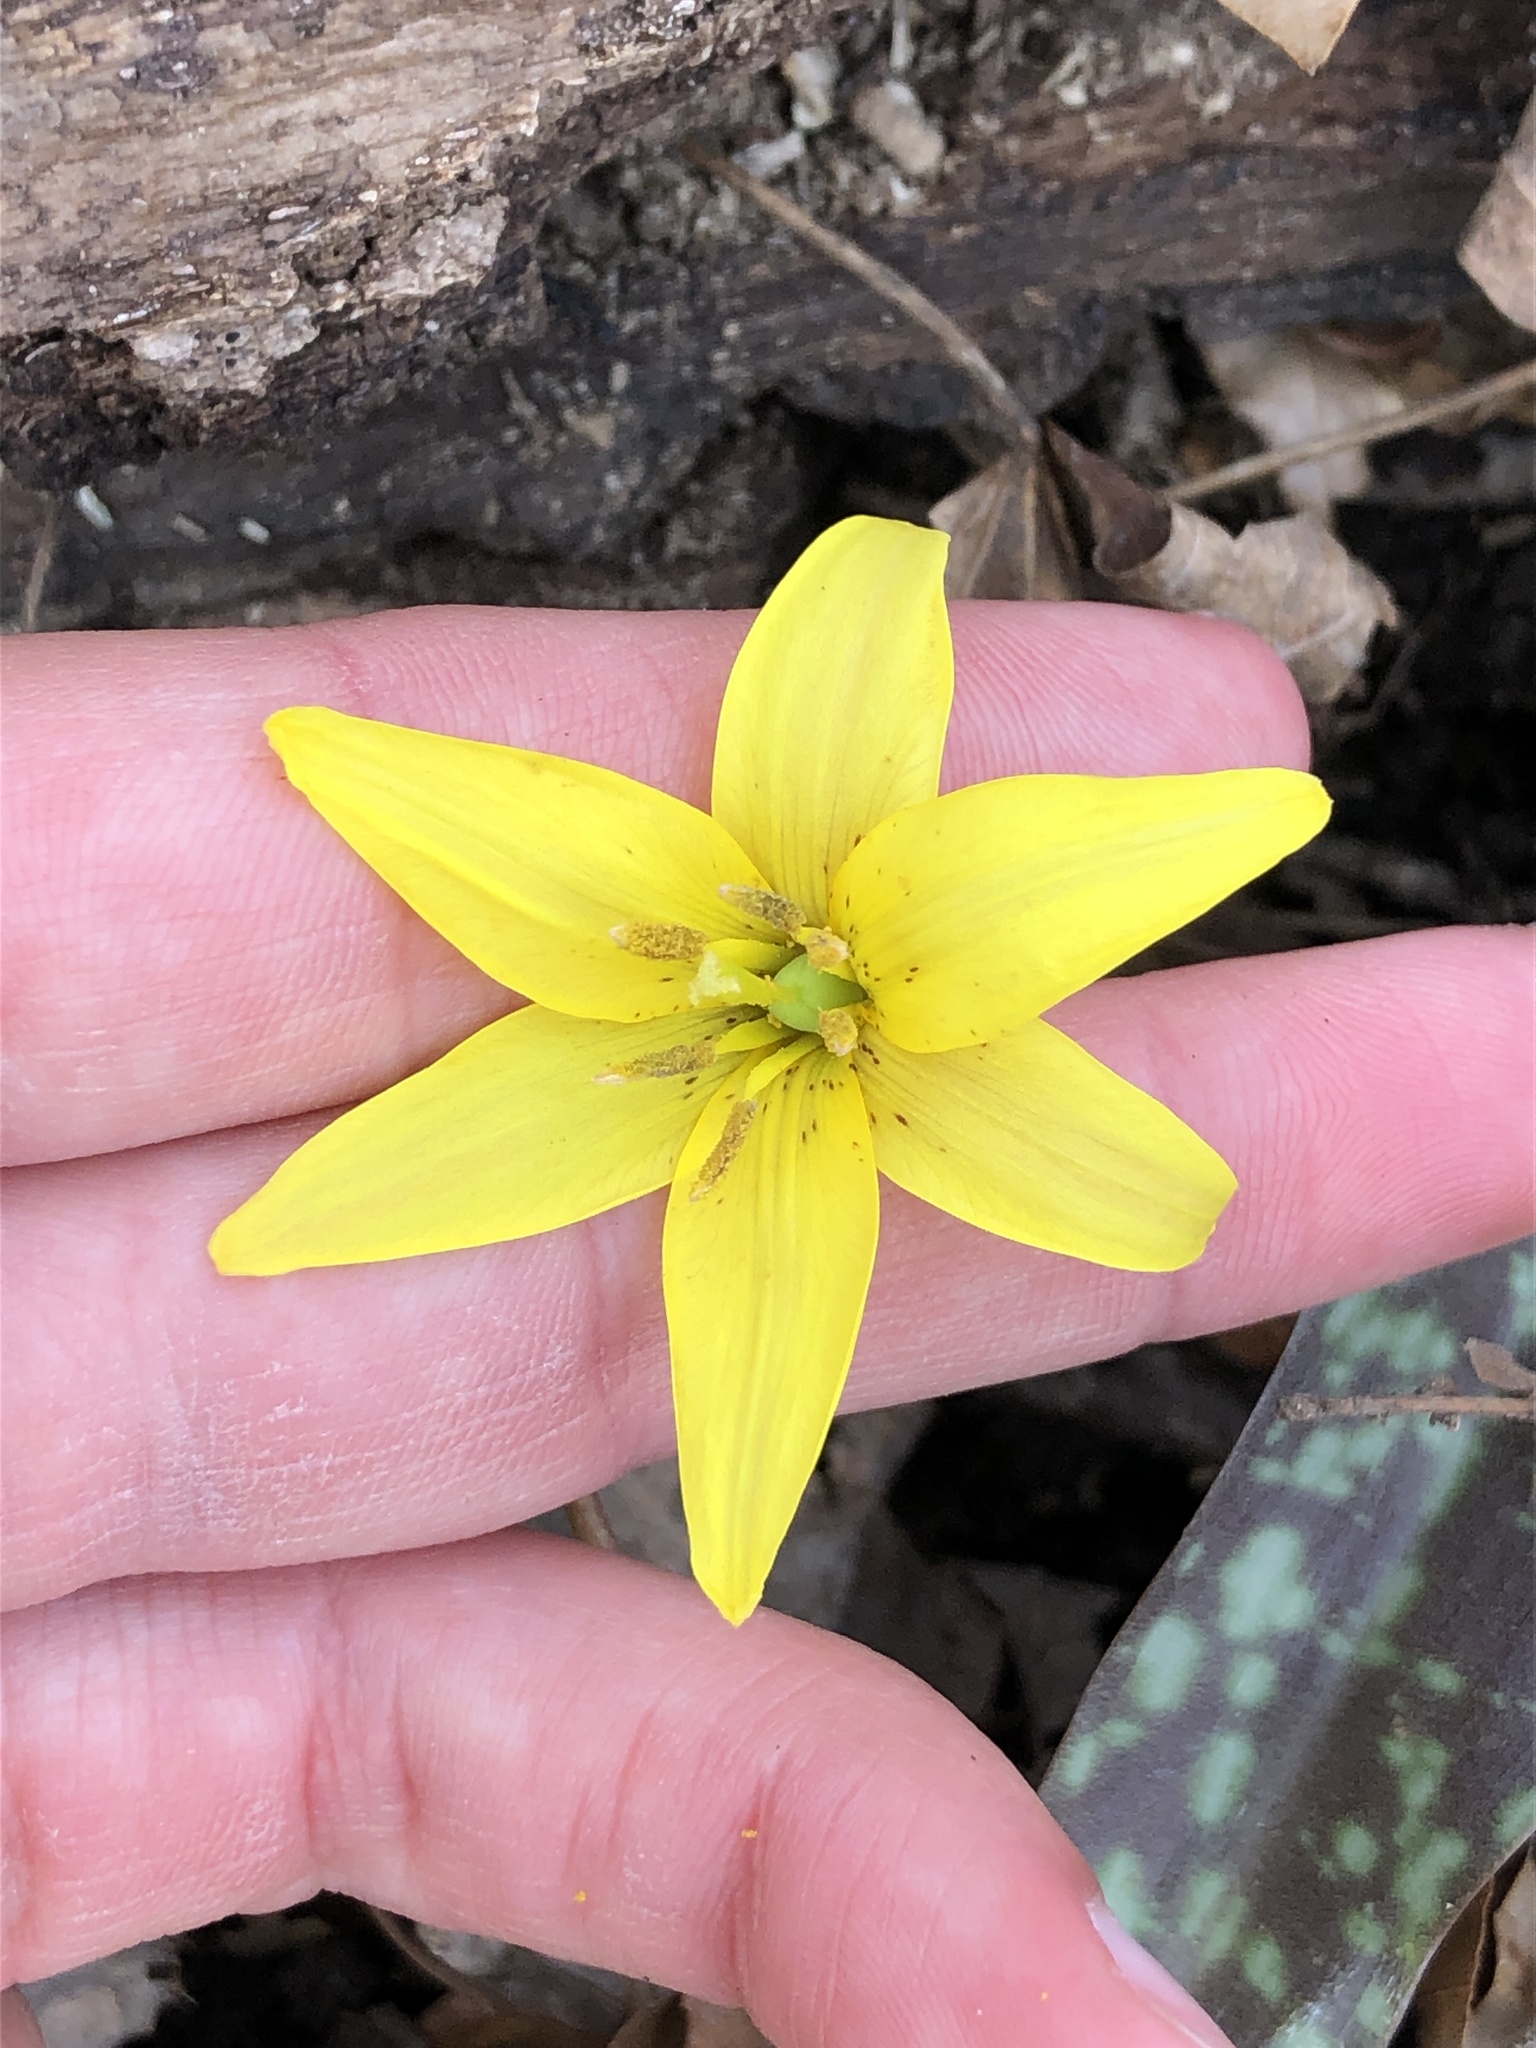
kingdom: Plantae
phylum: Tracheophyta
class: Liliopsida
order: Liliales
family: Liliaceae
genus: Erythronium
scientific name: Erythronium americanum
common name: Yellow adder's-tongue
